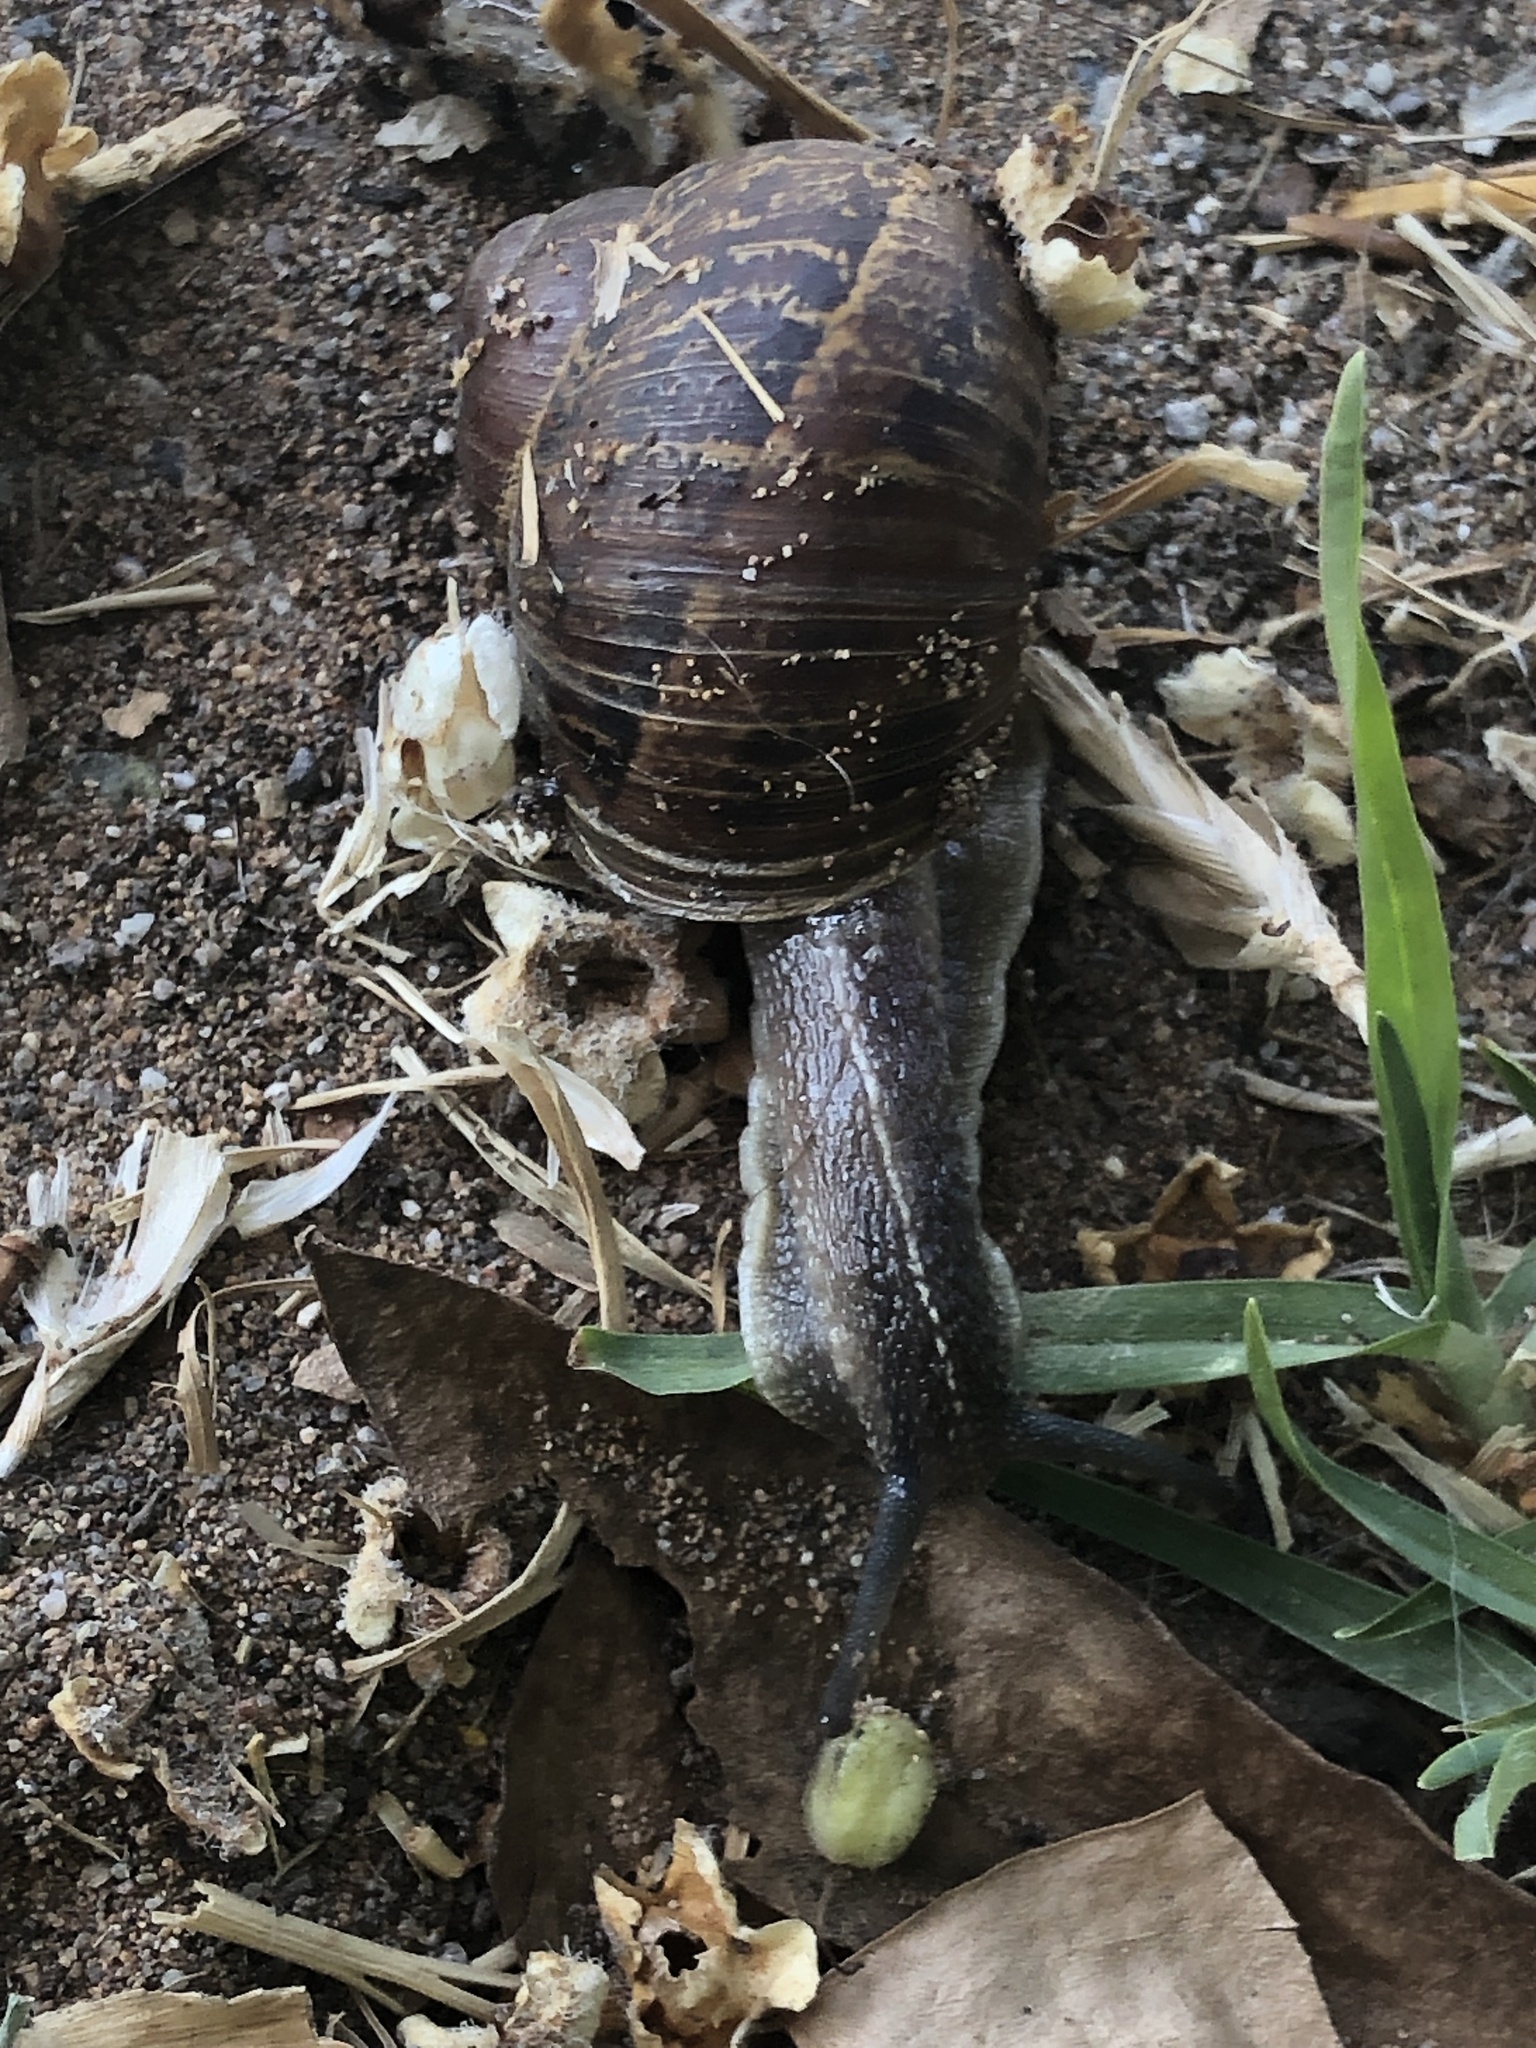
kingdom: Animalia
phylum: Mollusca
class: Gastropoda
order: Stylommatophora
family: Helicidae
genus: Cornu
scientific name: Cornu aspersum
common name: Brown garden snail
